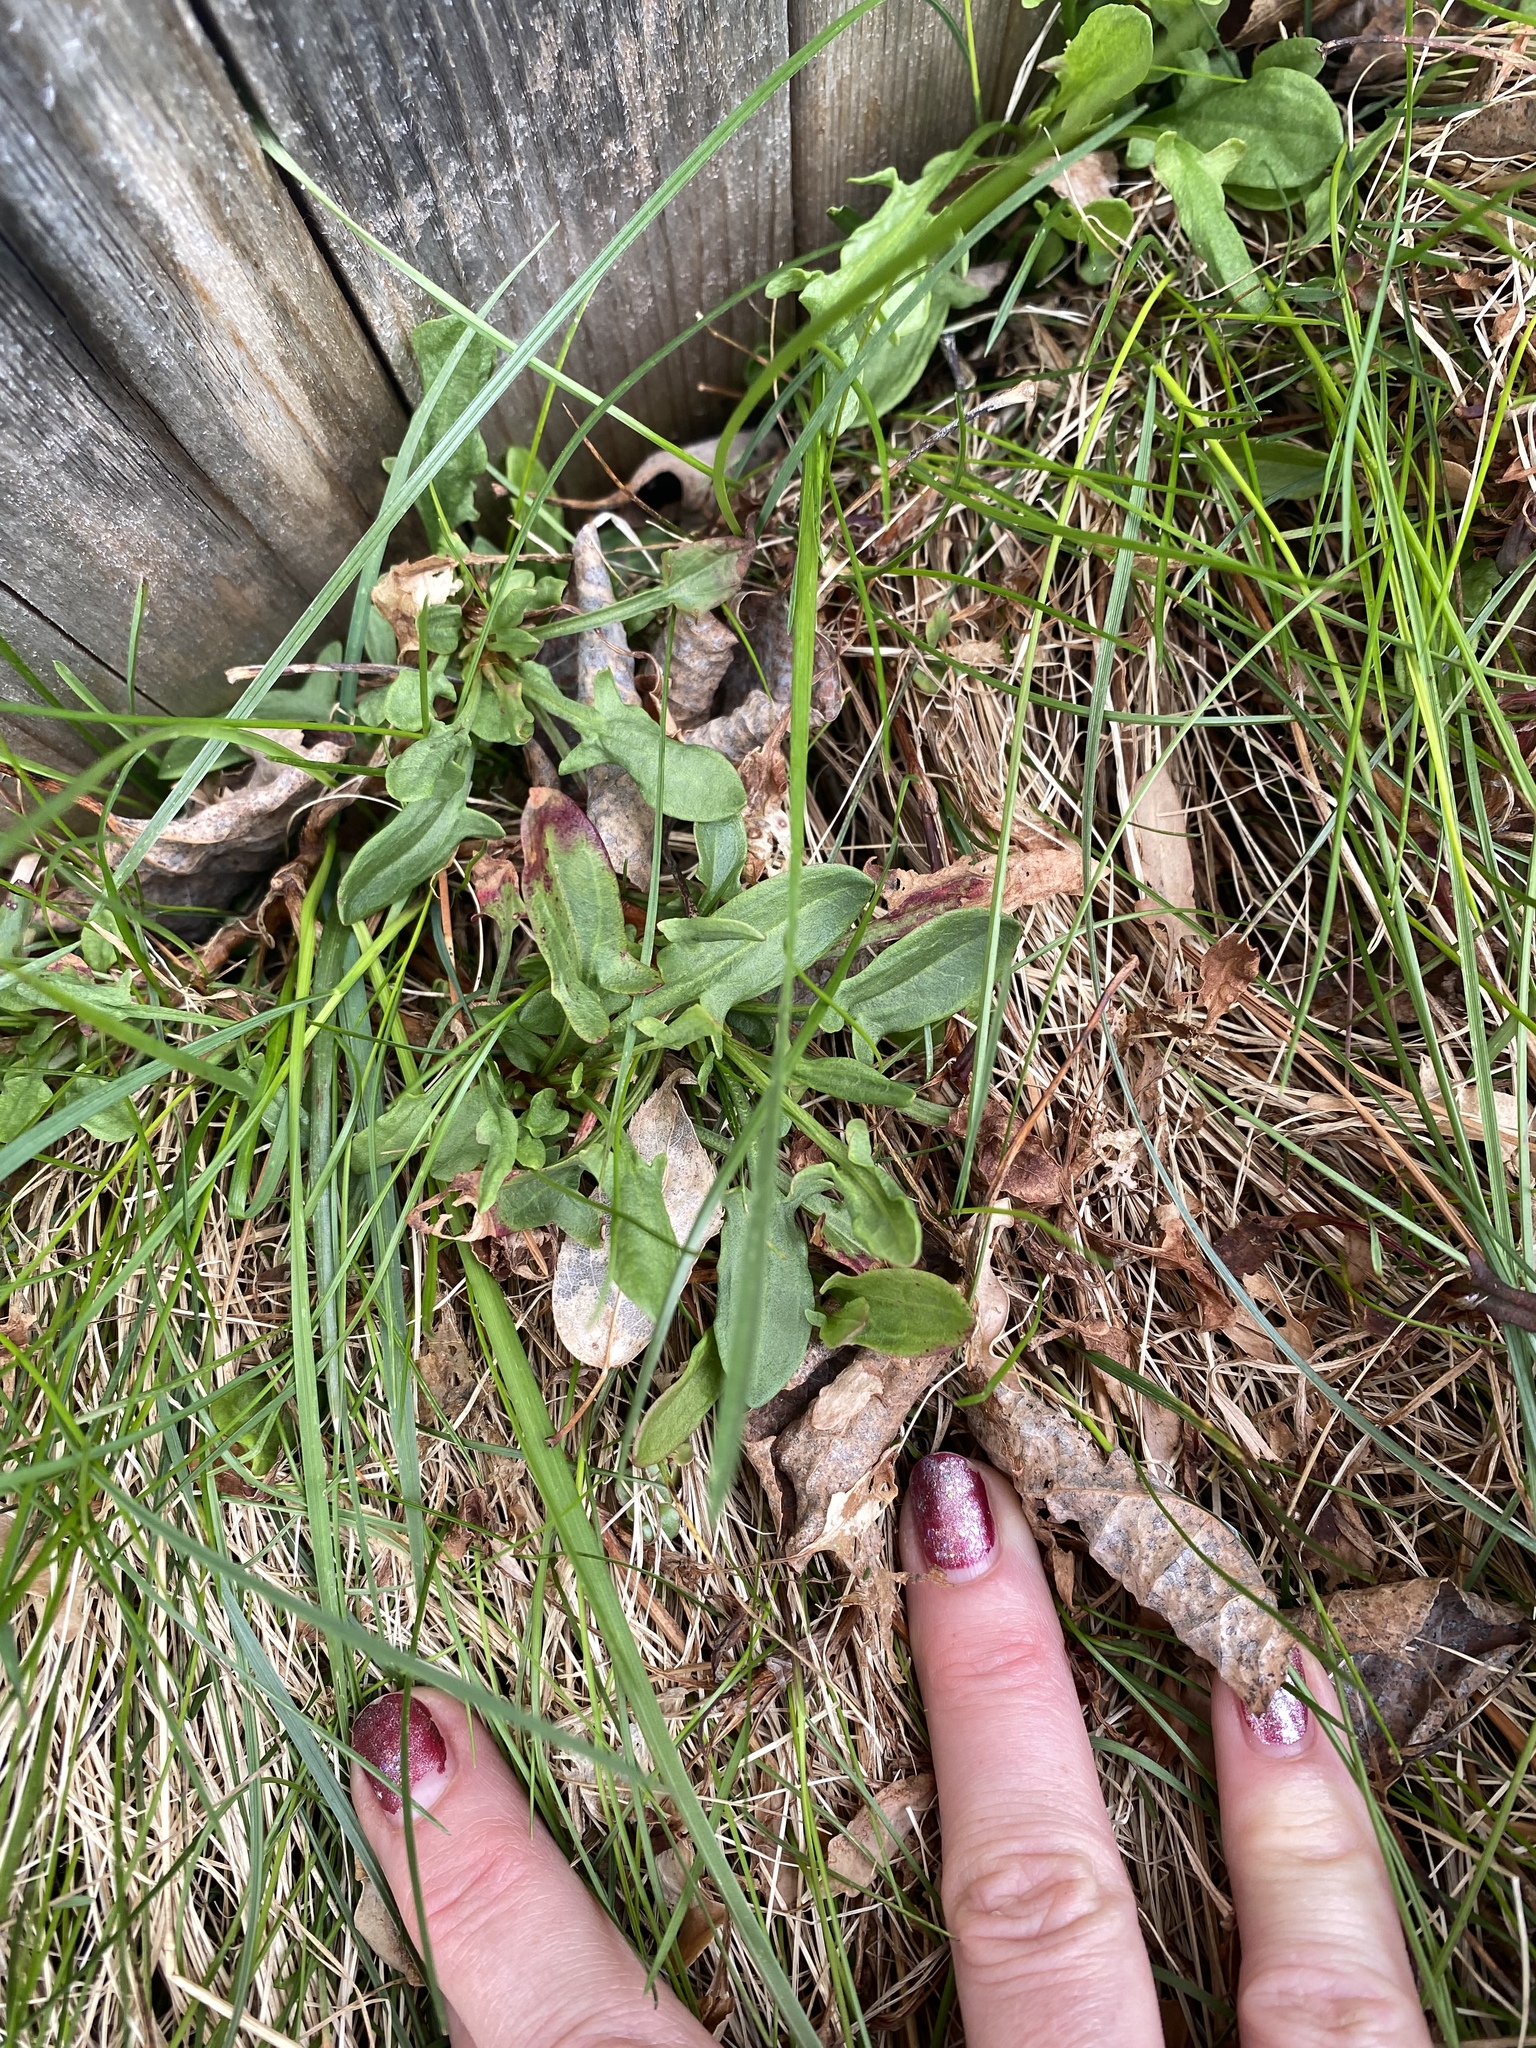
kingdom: Plantae
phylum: Tracheophyta
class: Magnoliopsida
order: Caryophyllales
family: Polygonaceae
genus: Rumex
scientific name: Rumex acetosella
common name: Common sheep sorrel
